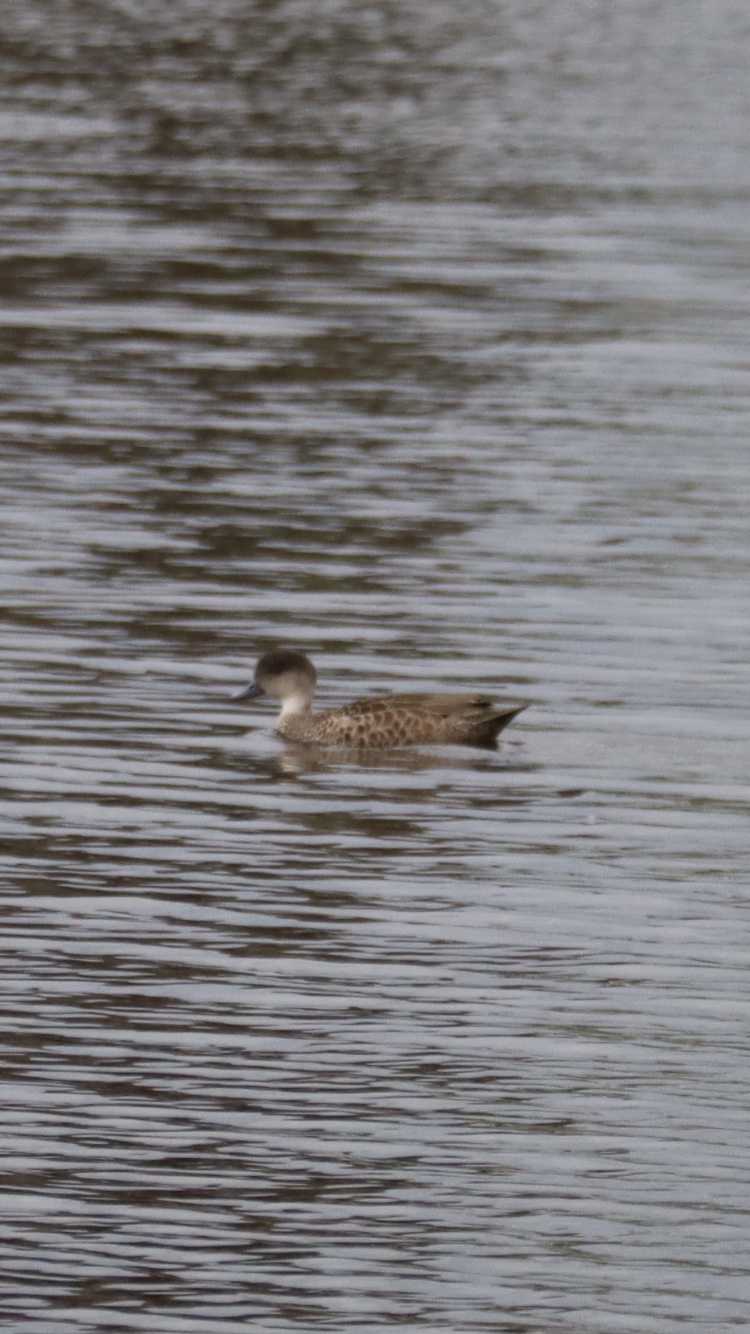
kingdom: Animalia
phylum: Chordata
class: Aves
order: Anseriformes
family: Anatidae
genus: Anas
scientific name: Anas gracilis
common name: Grey teal
